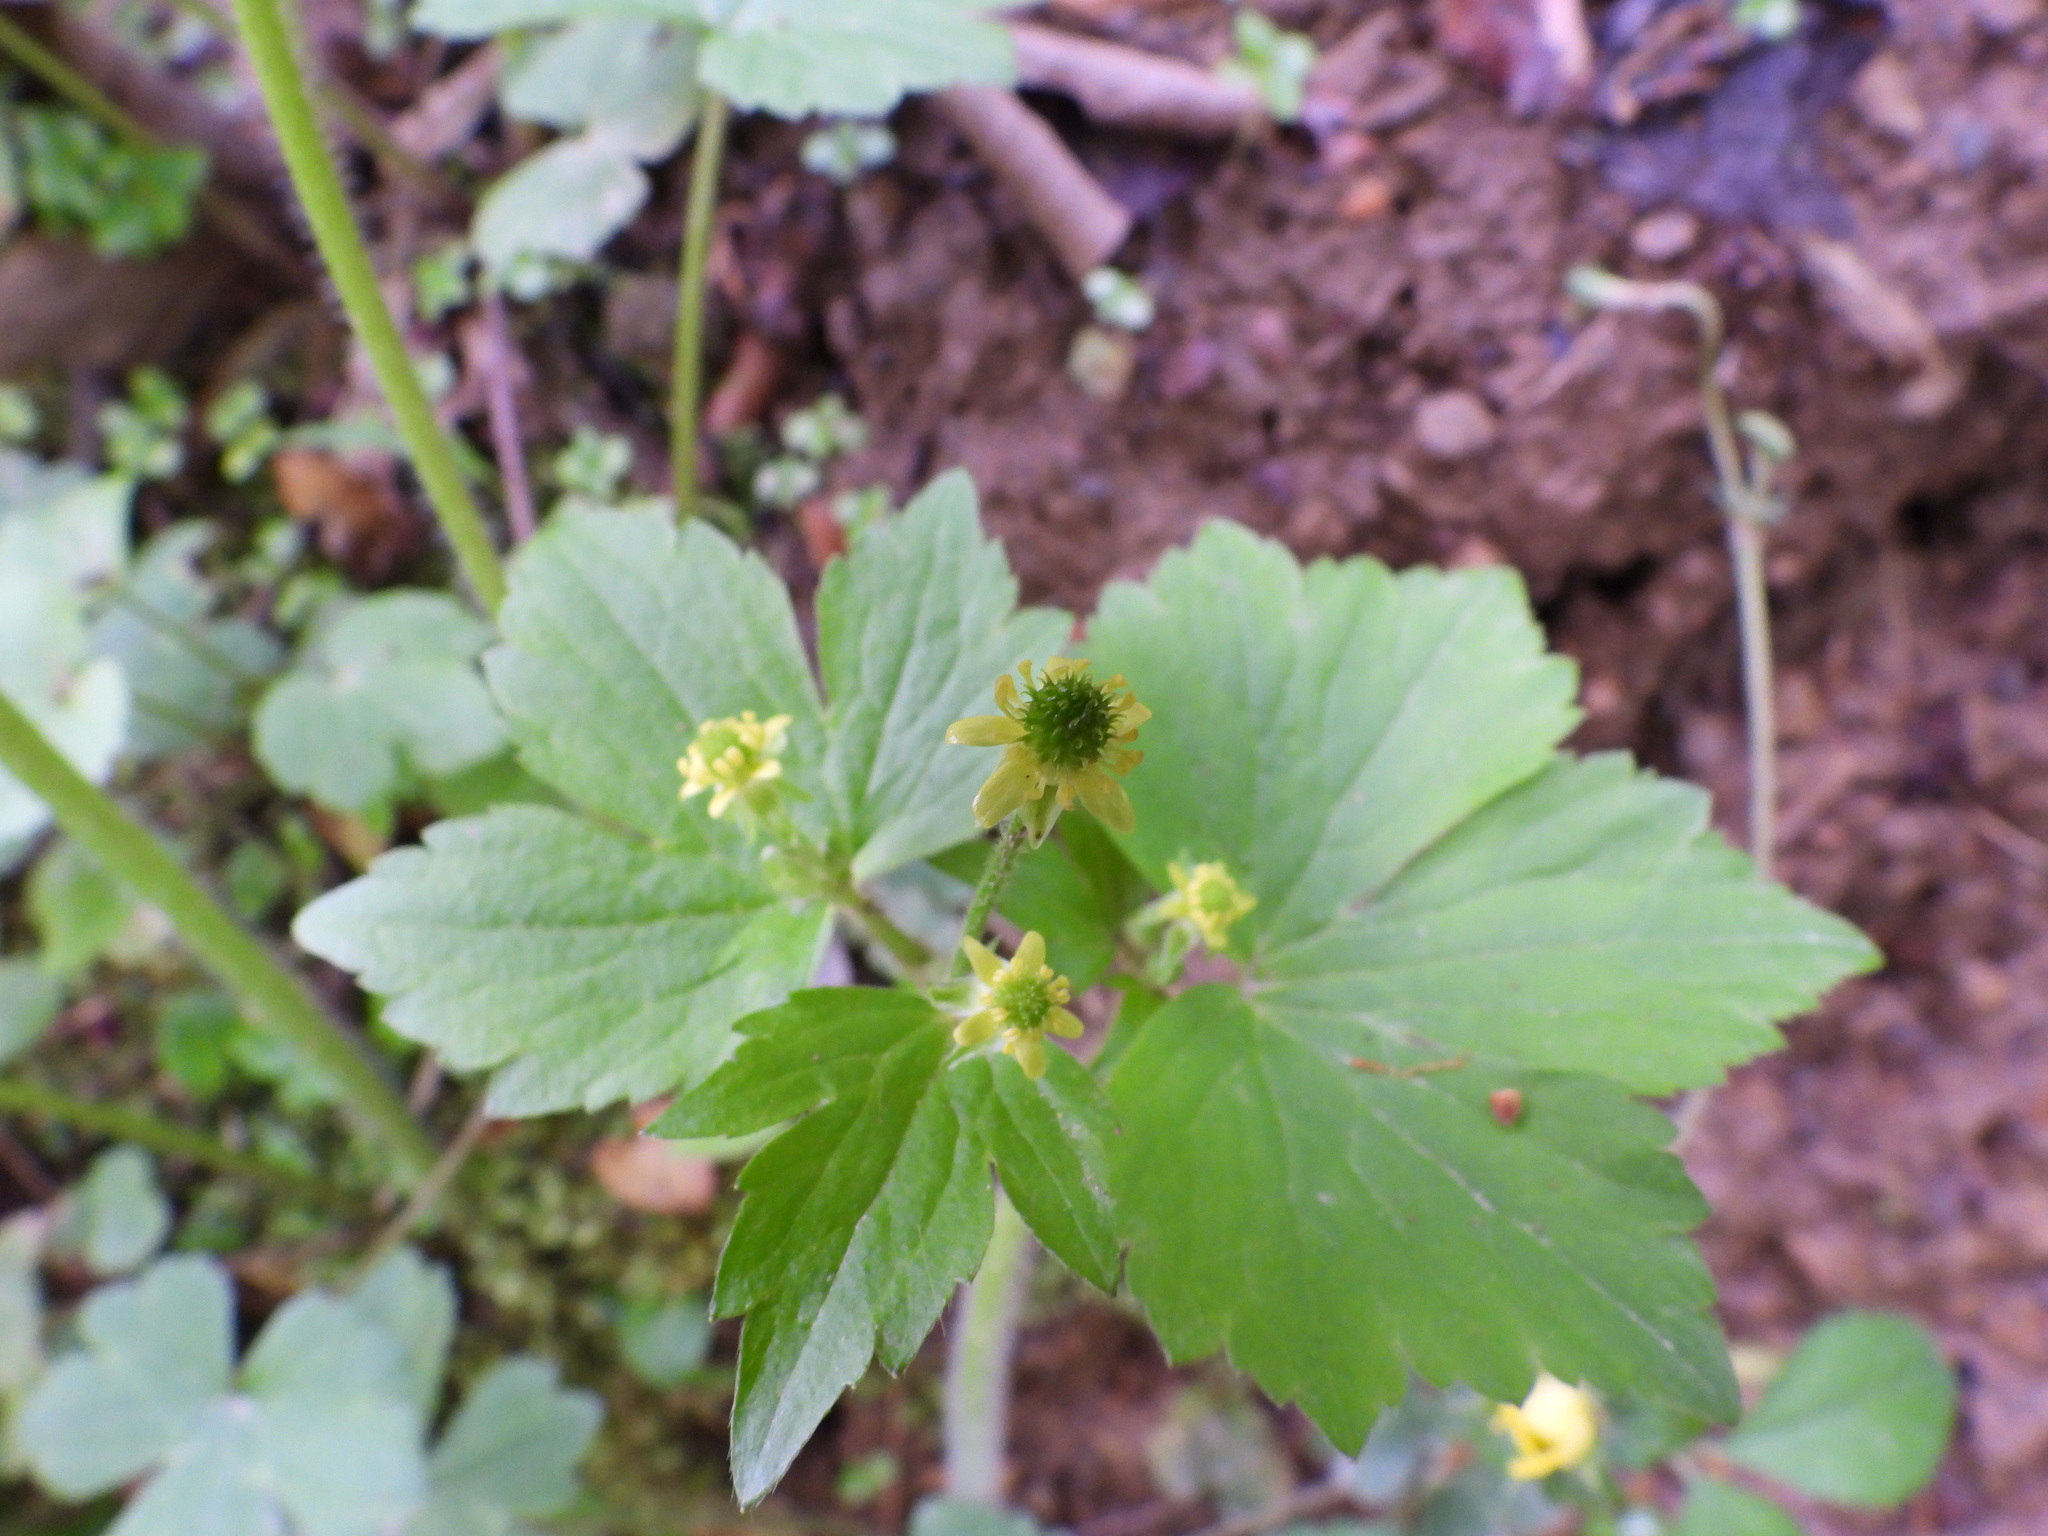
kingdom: Plantae
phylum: Tracheophyta
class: Magnoliopsida
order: Ranunculales
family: Ranunculaceae
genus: Ranunculus
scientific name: Ranunculus recurvatus
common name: Blisterwort
